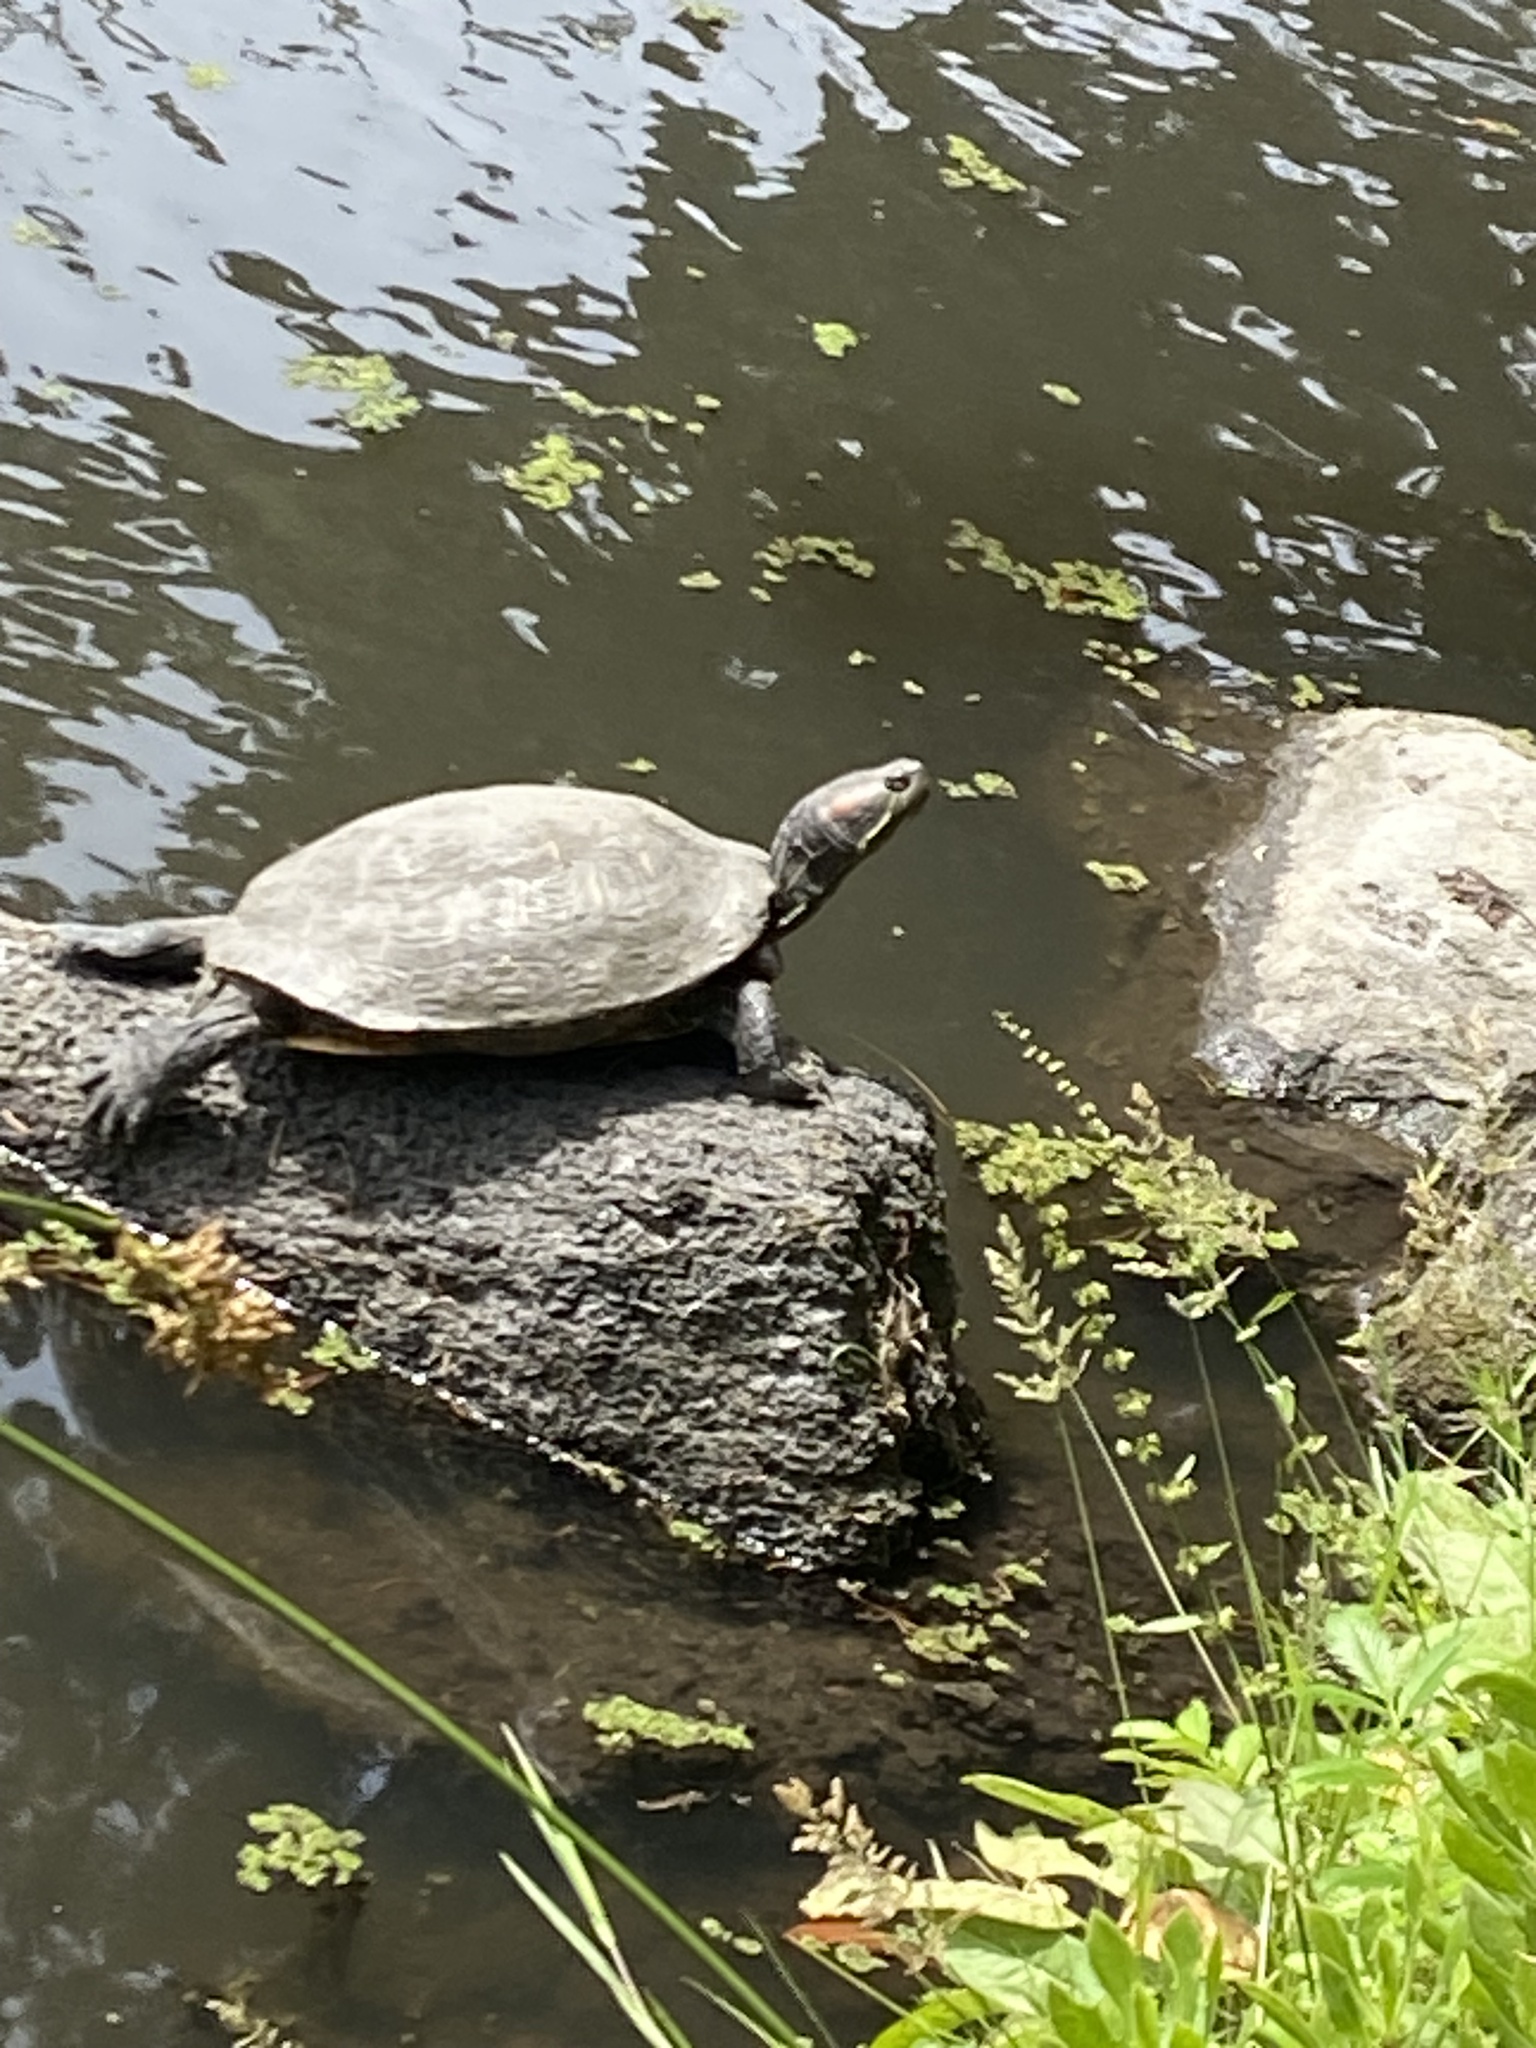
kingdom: Animalia
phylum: Chordata
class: Testudines
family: Emydidae
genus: Trachemys
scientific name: Trachemys scripta
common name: Slider
